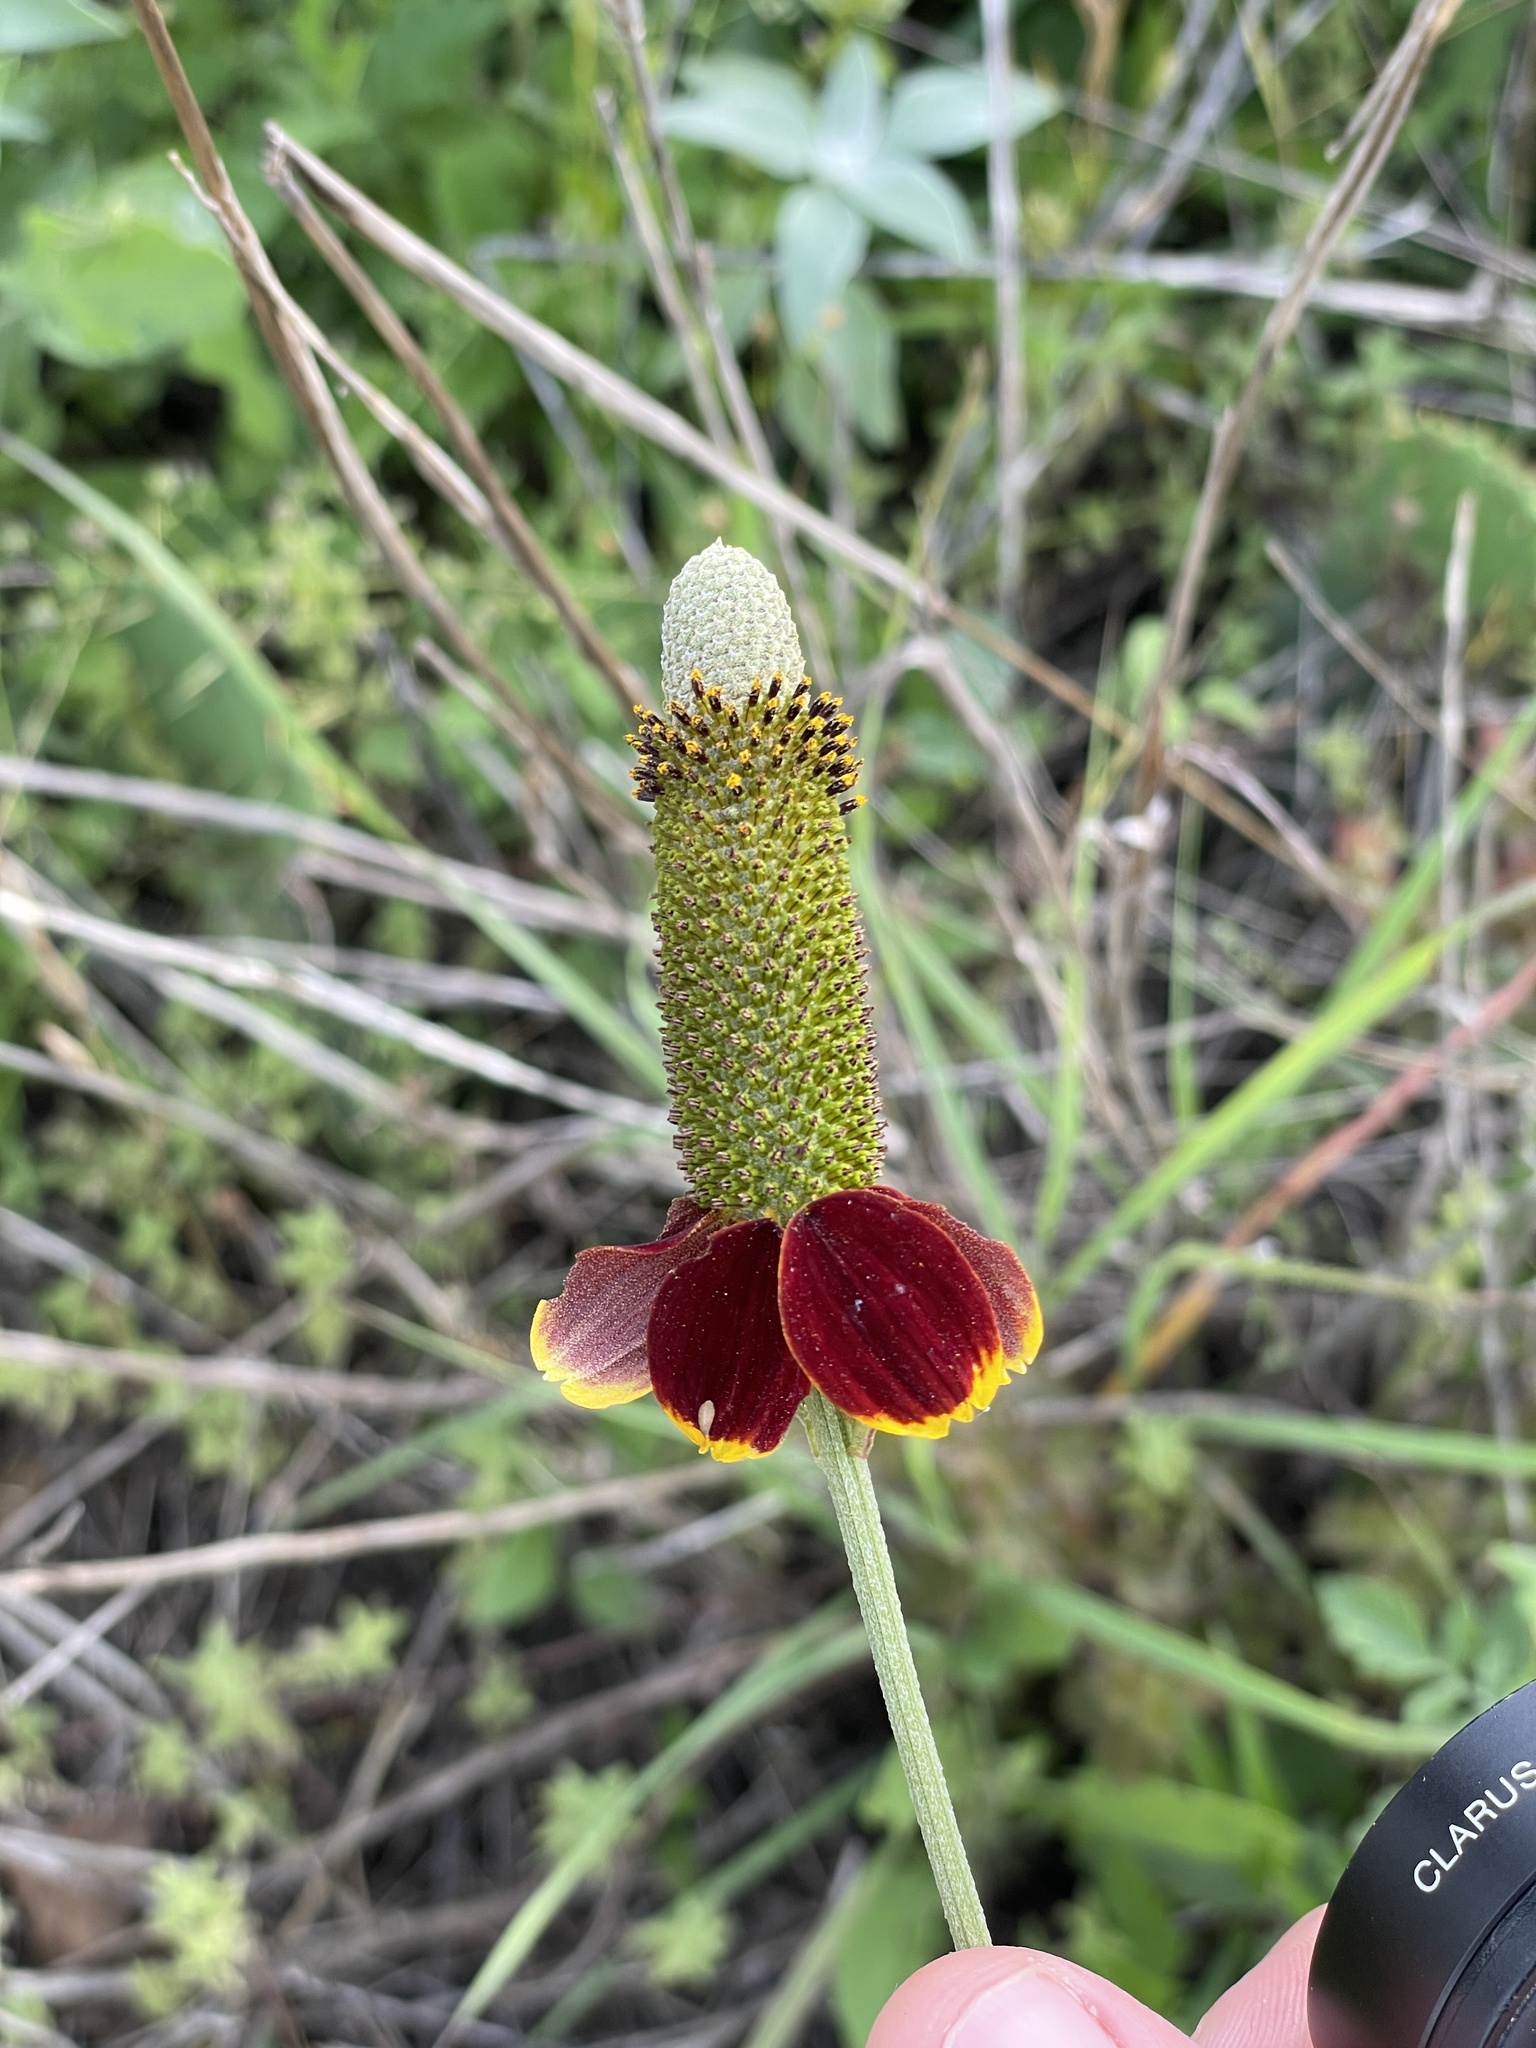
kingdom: Plantae
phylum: Tracheophyta
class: Magnoliopsida
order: Asterales
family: Asteraceae
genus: Ratibida
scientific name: Ratibida peduncularis
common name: Naked prairie-coneflower
